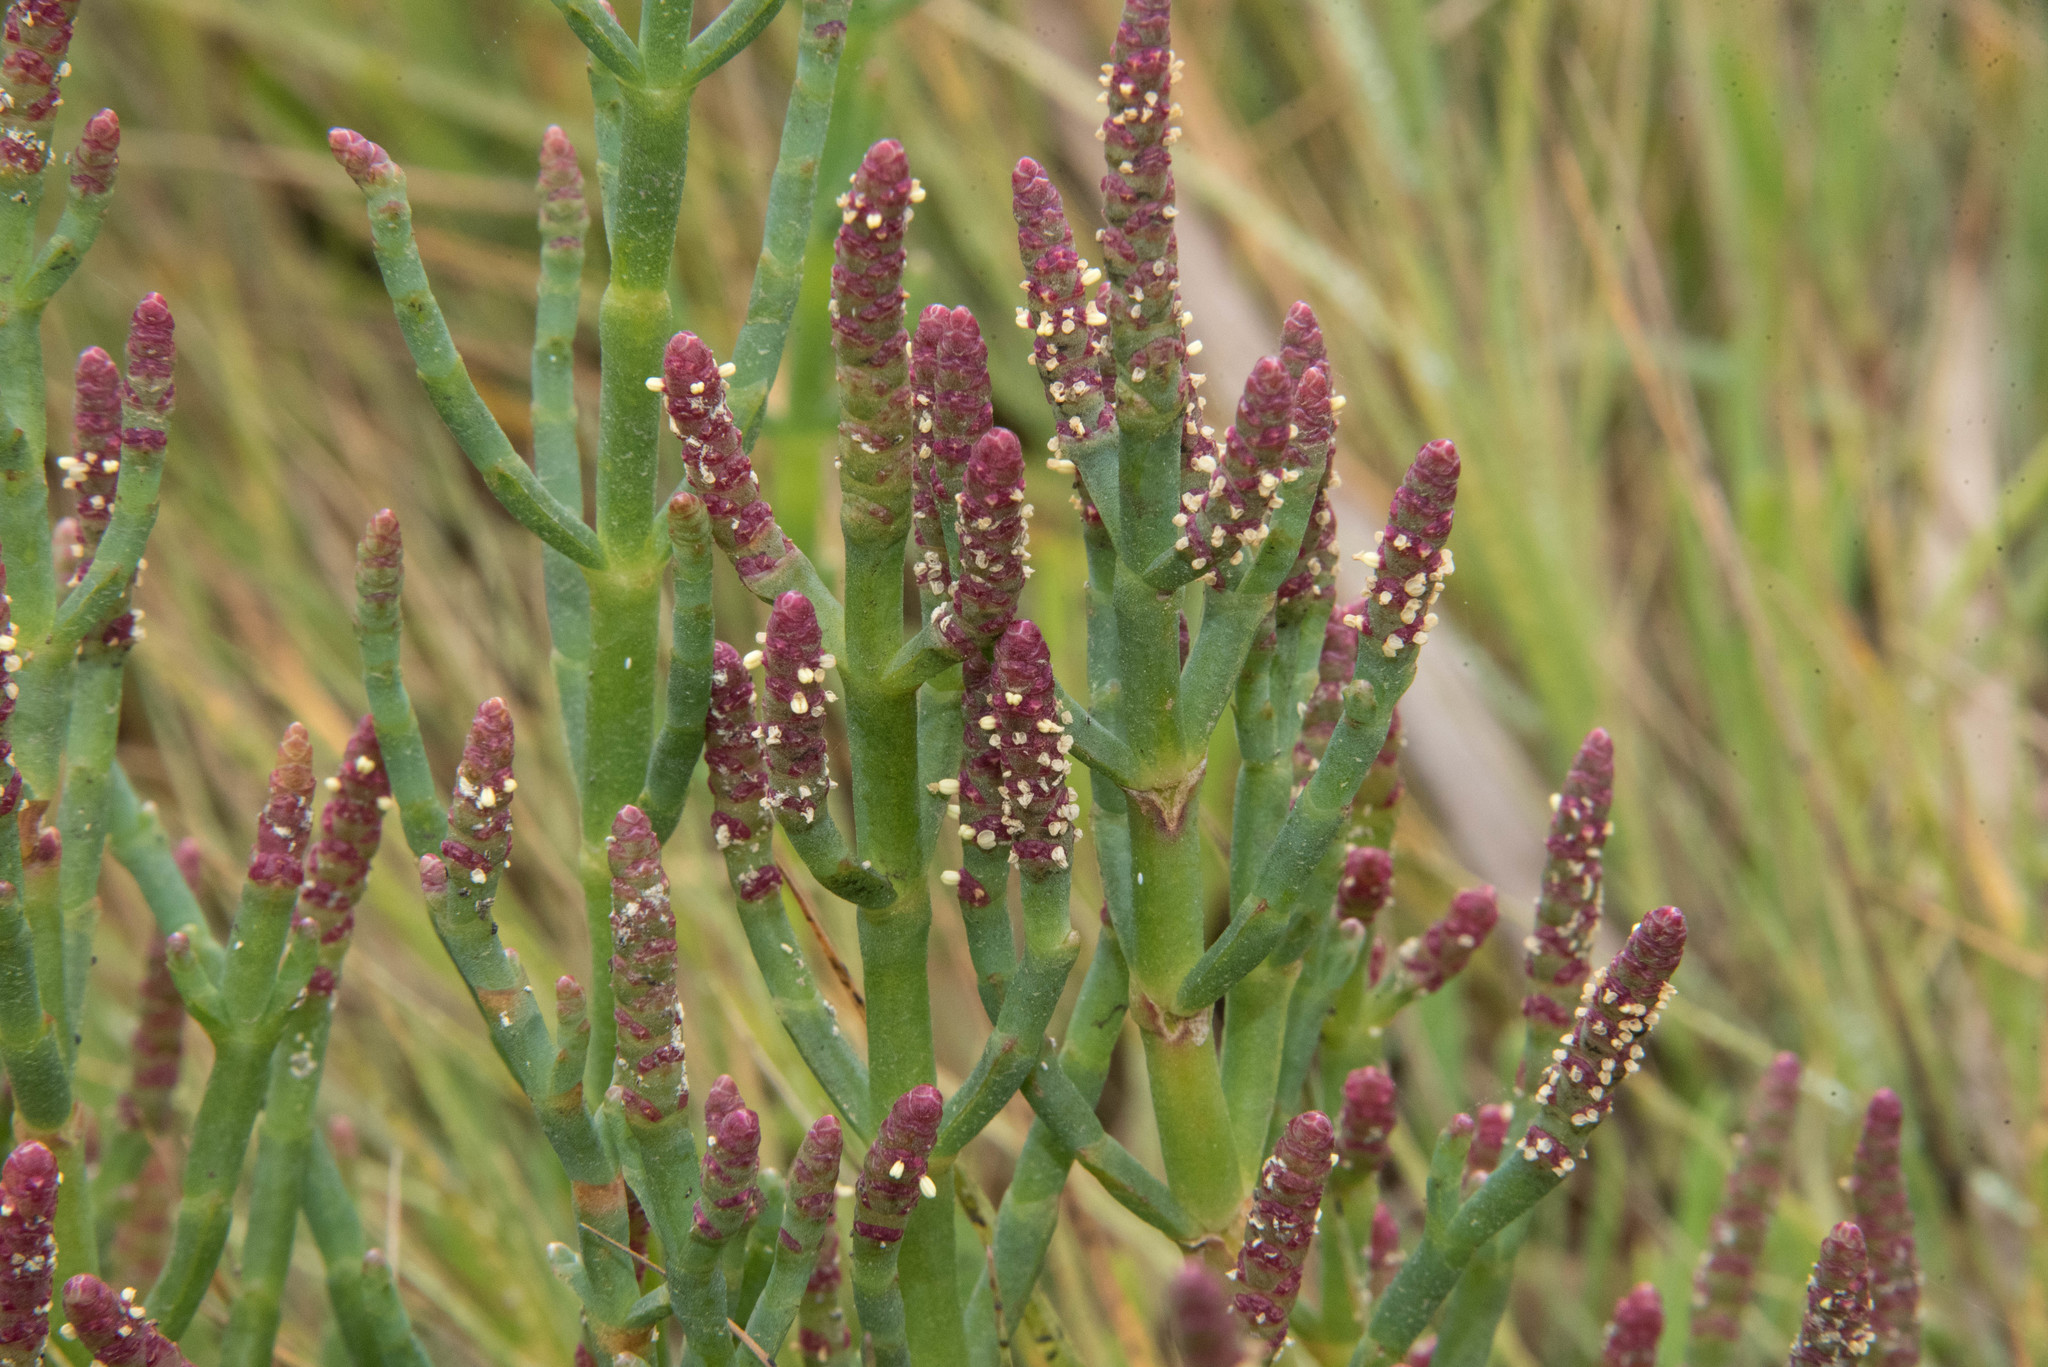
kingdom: Plantae
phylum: Tracheophyta
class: Magnoliopsida
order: Caryophyllales
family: Amaranthaceae
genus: Salicornia
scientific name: Salicornia pacifica
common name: Pacific glasswort
